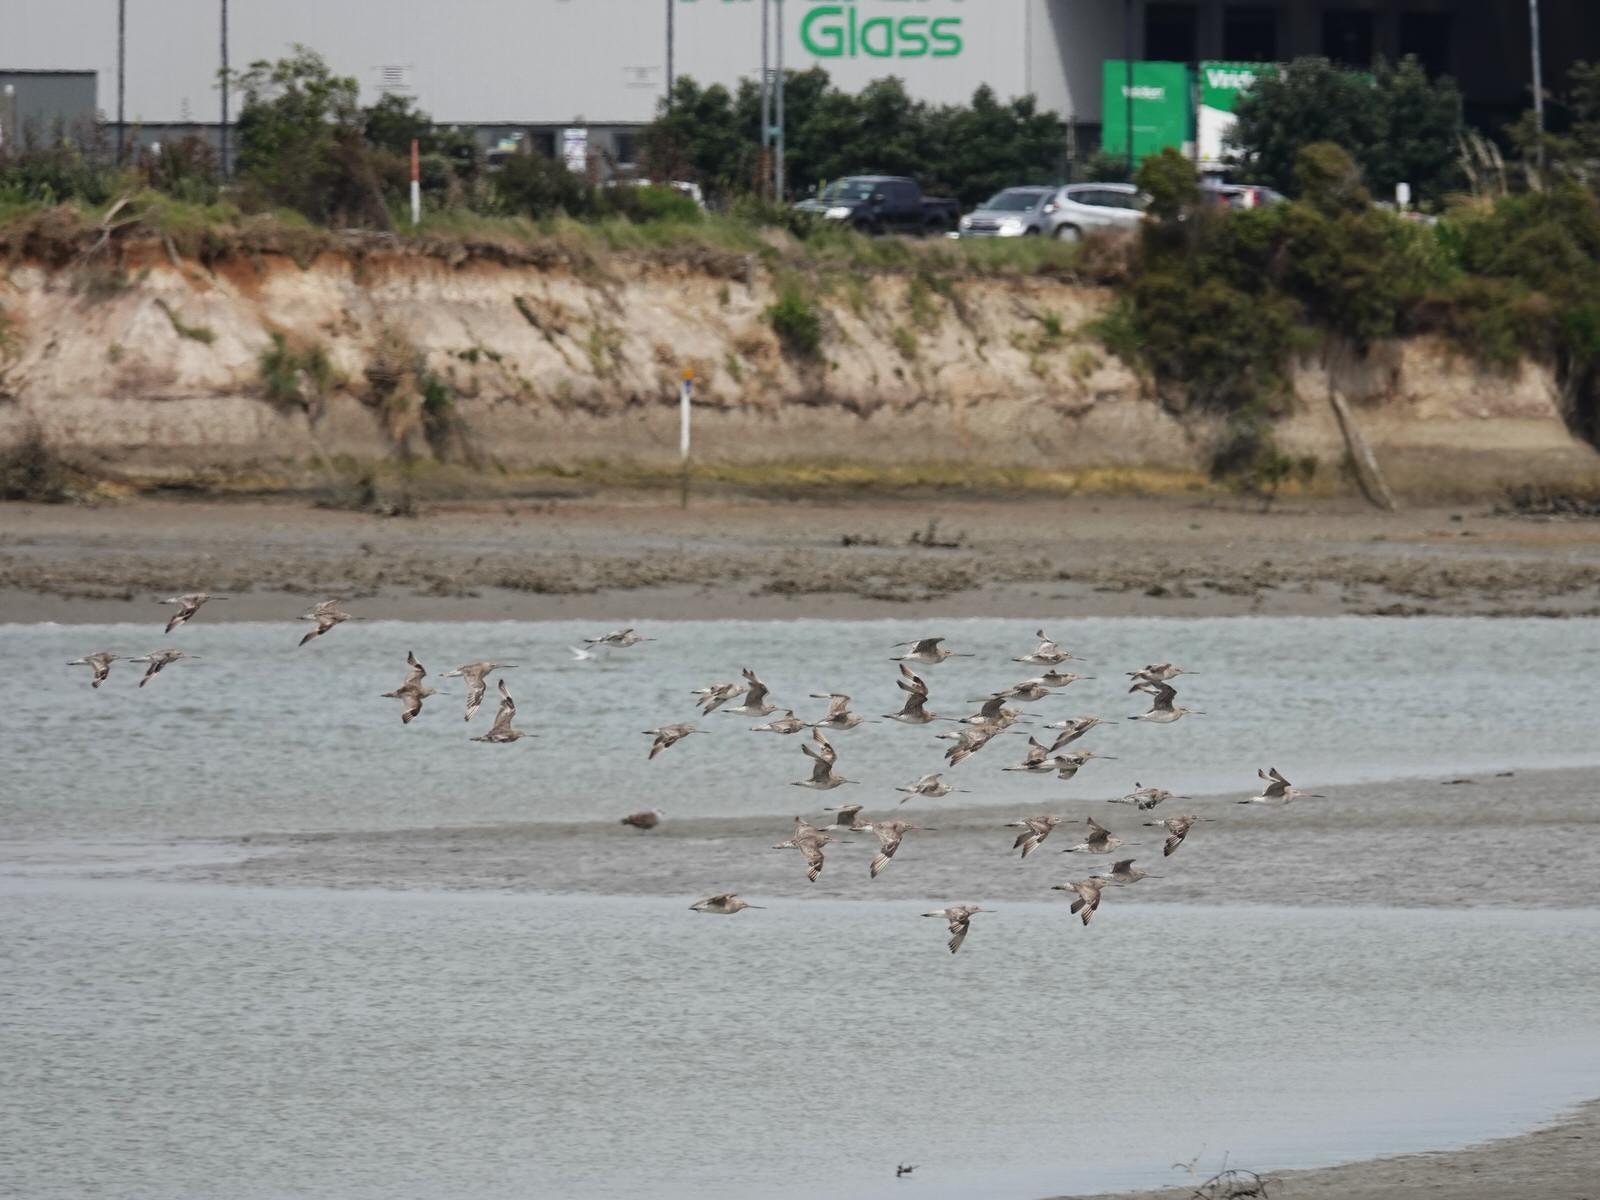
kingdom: Animalia
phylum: Chordata
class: Aves
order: Charadriiformes
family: Scolopacidae
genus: Limosa
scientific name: Limosa lapponica
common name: Bar-tailed godwit
